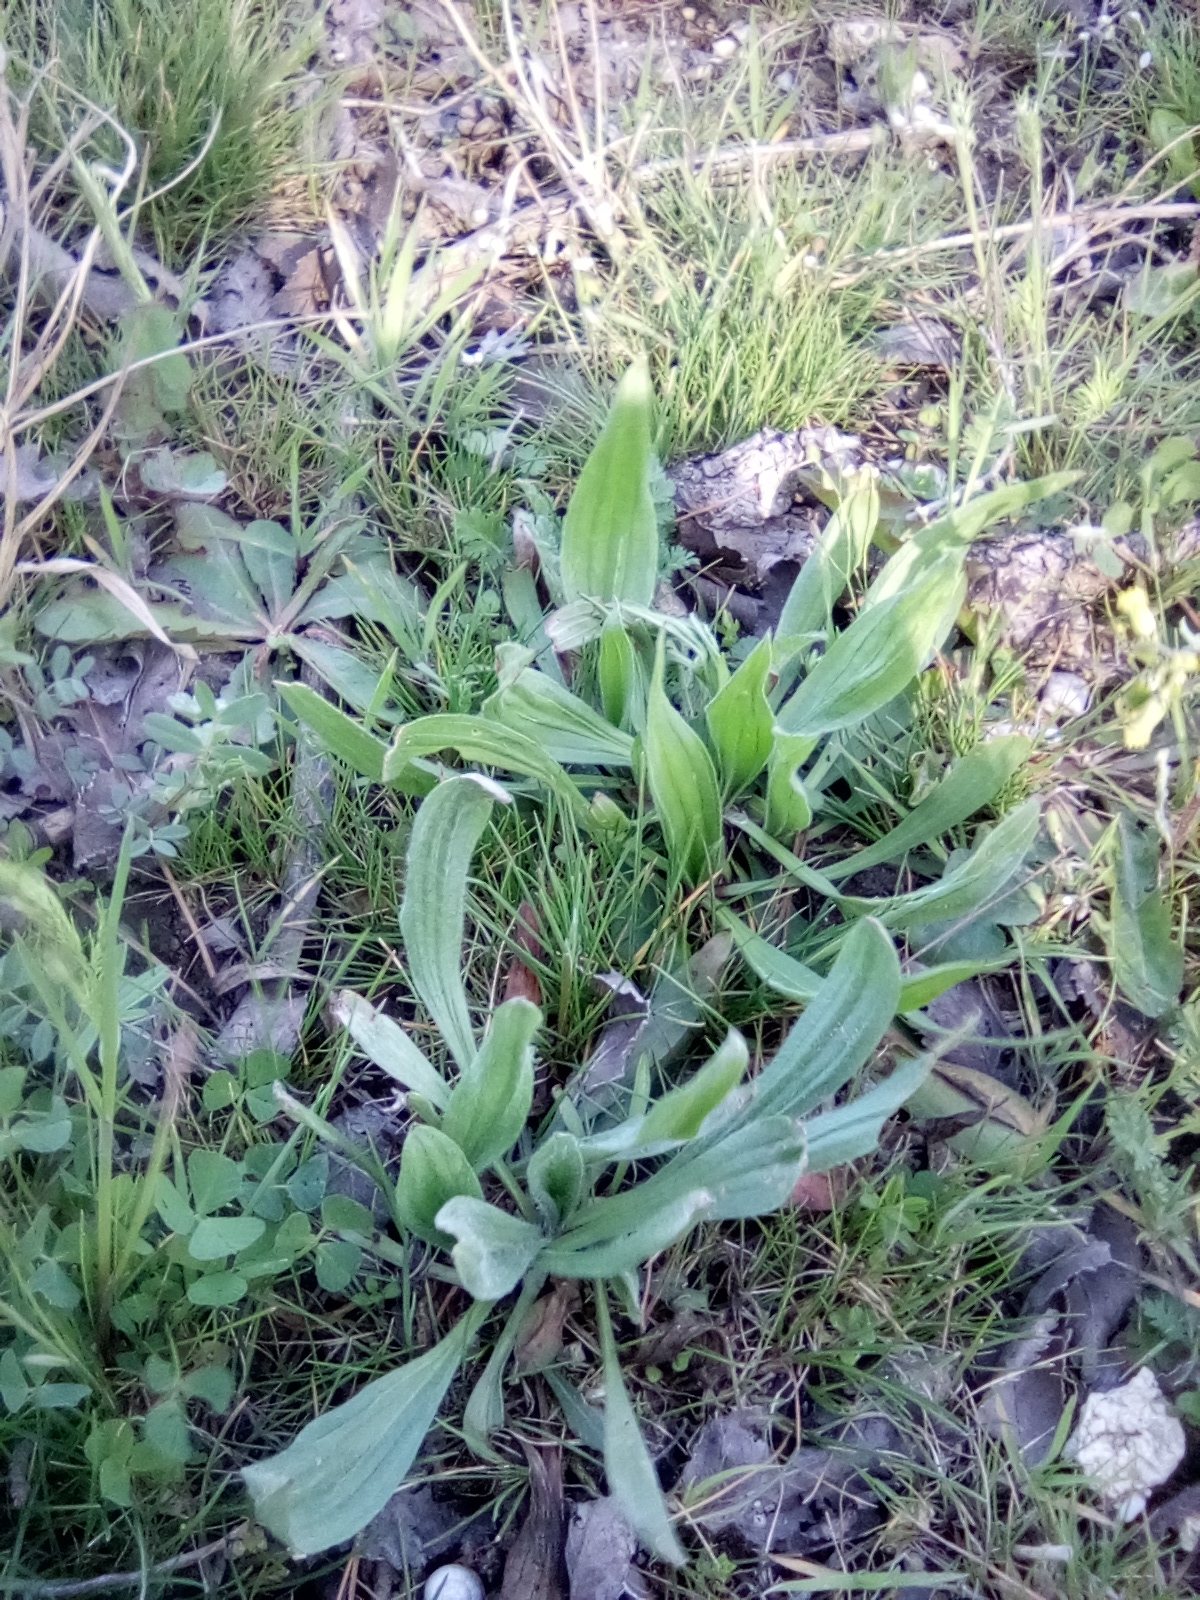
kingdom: Plantae
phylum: Tracheophyta
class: Magnoliopsida
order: Lamiales
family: Plantaginaceae
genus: Plantago
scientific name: Plantago lanceolata
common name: Ribwort plantain
